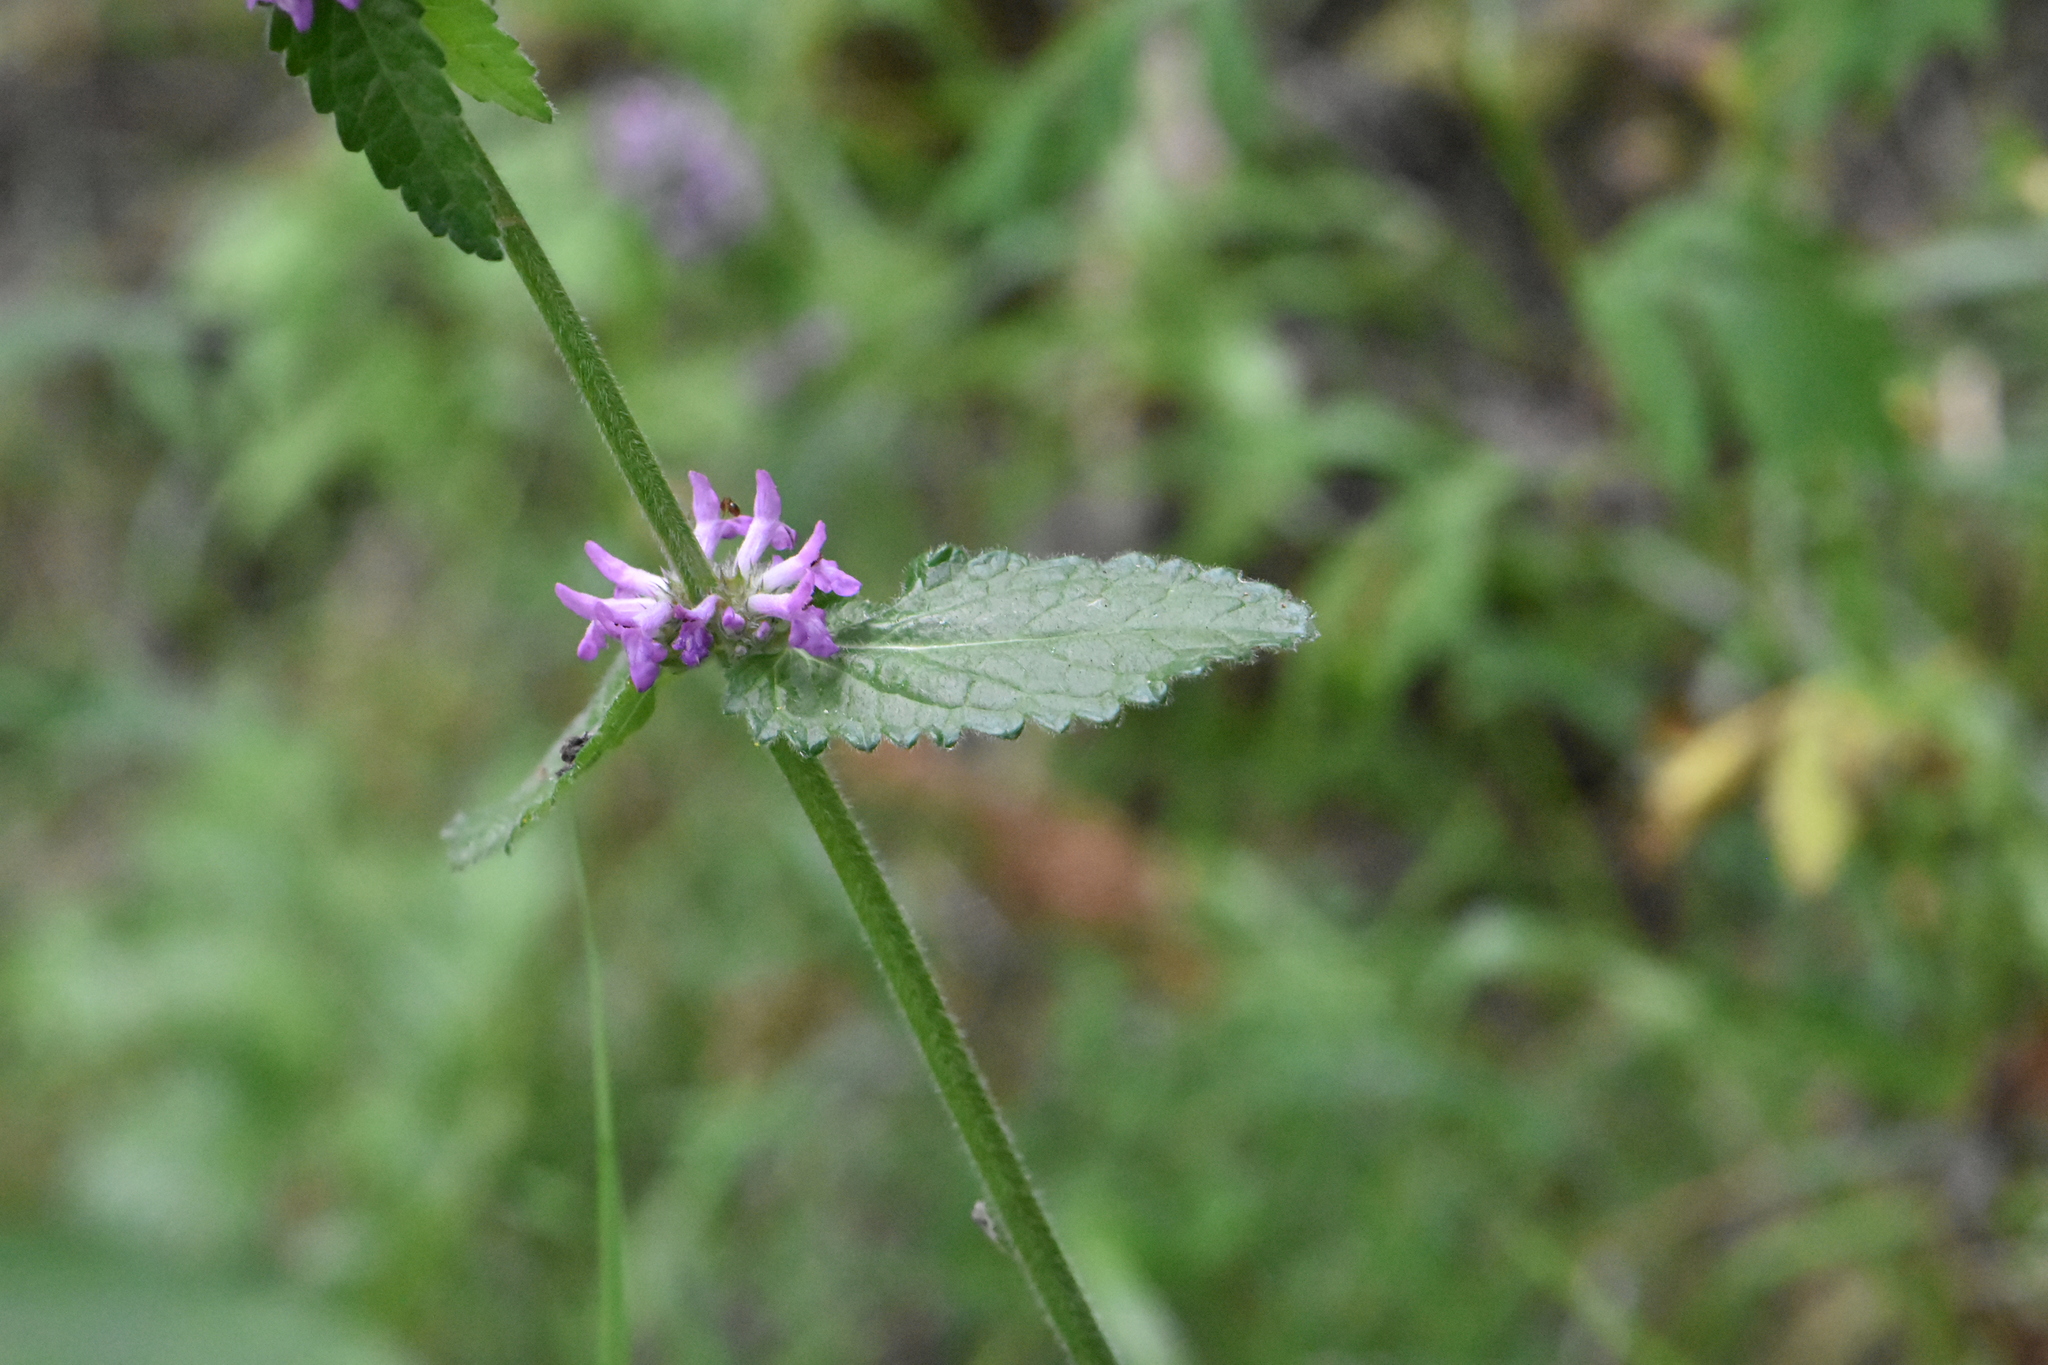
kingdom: Plantae
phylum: Tracheophyta
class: Magnoliopsida
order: Lamiales
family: Lamiaceae
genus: Betonica
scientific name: Betonica officinalis
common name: Bishop's-wort
